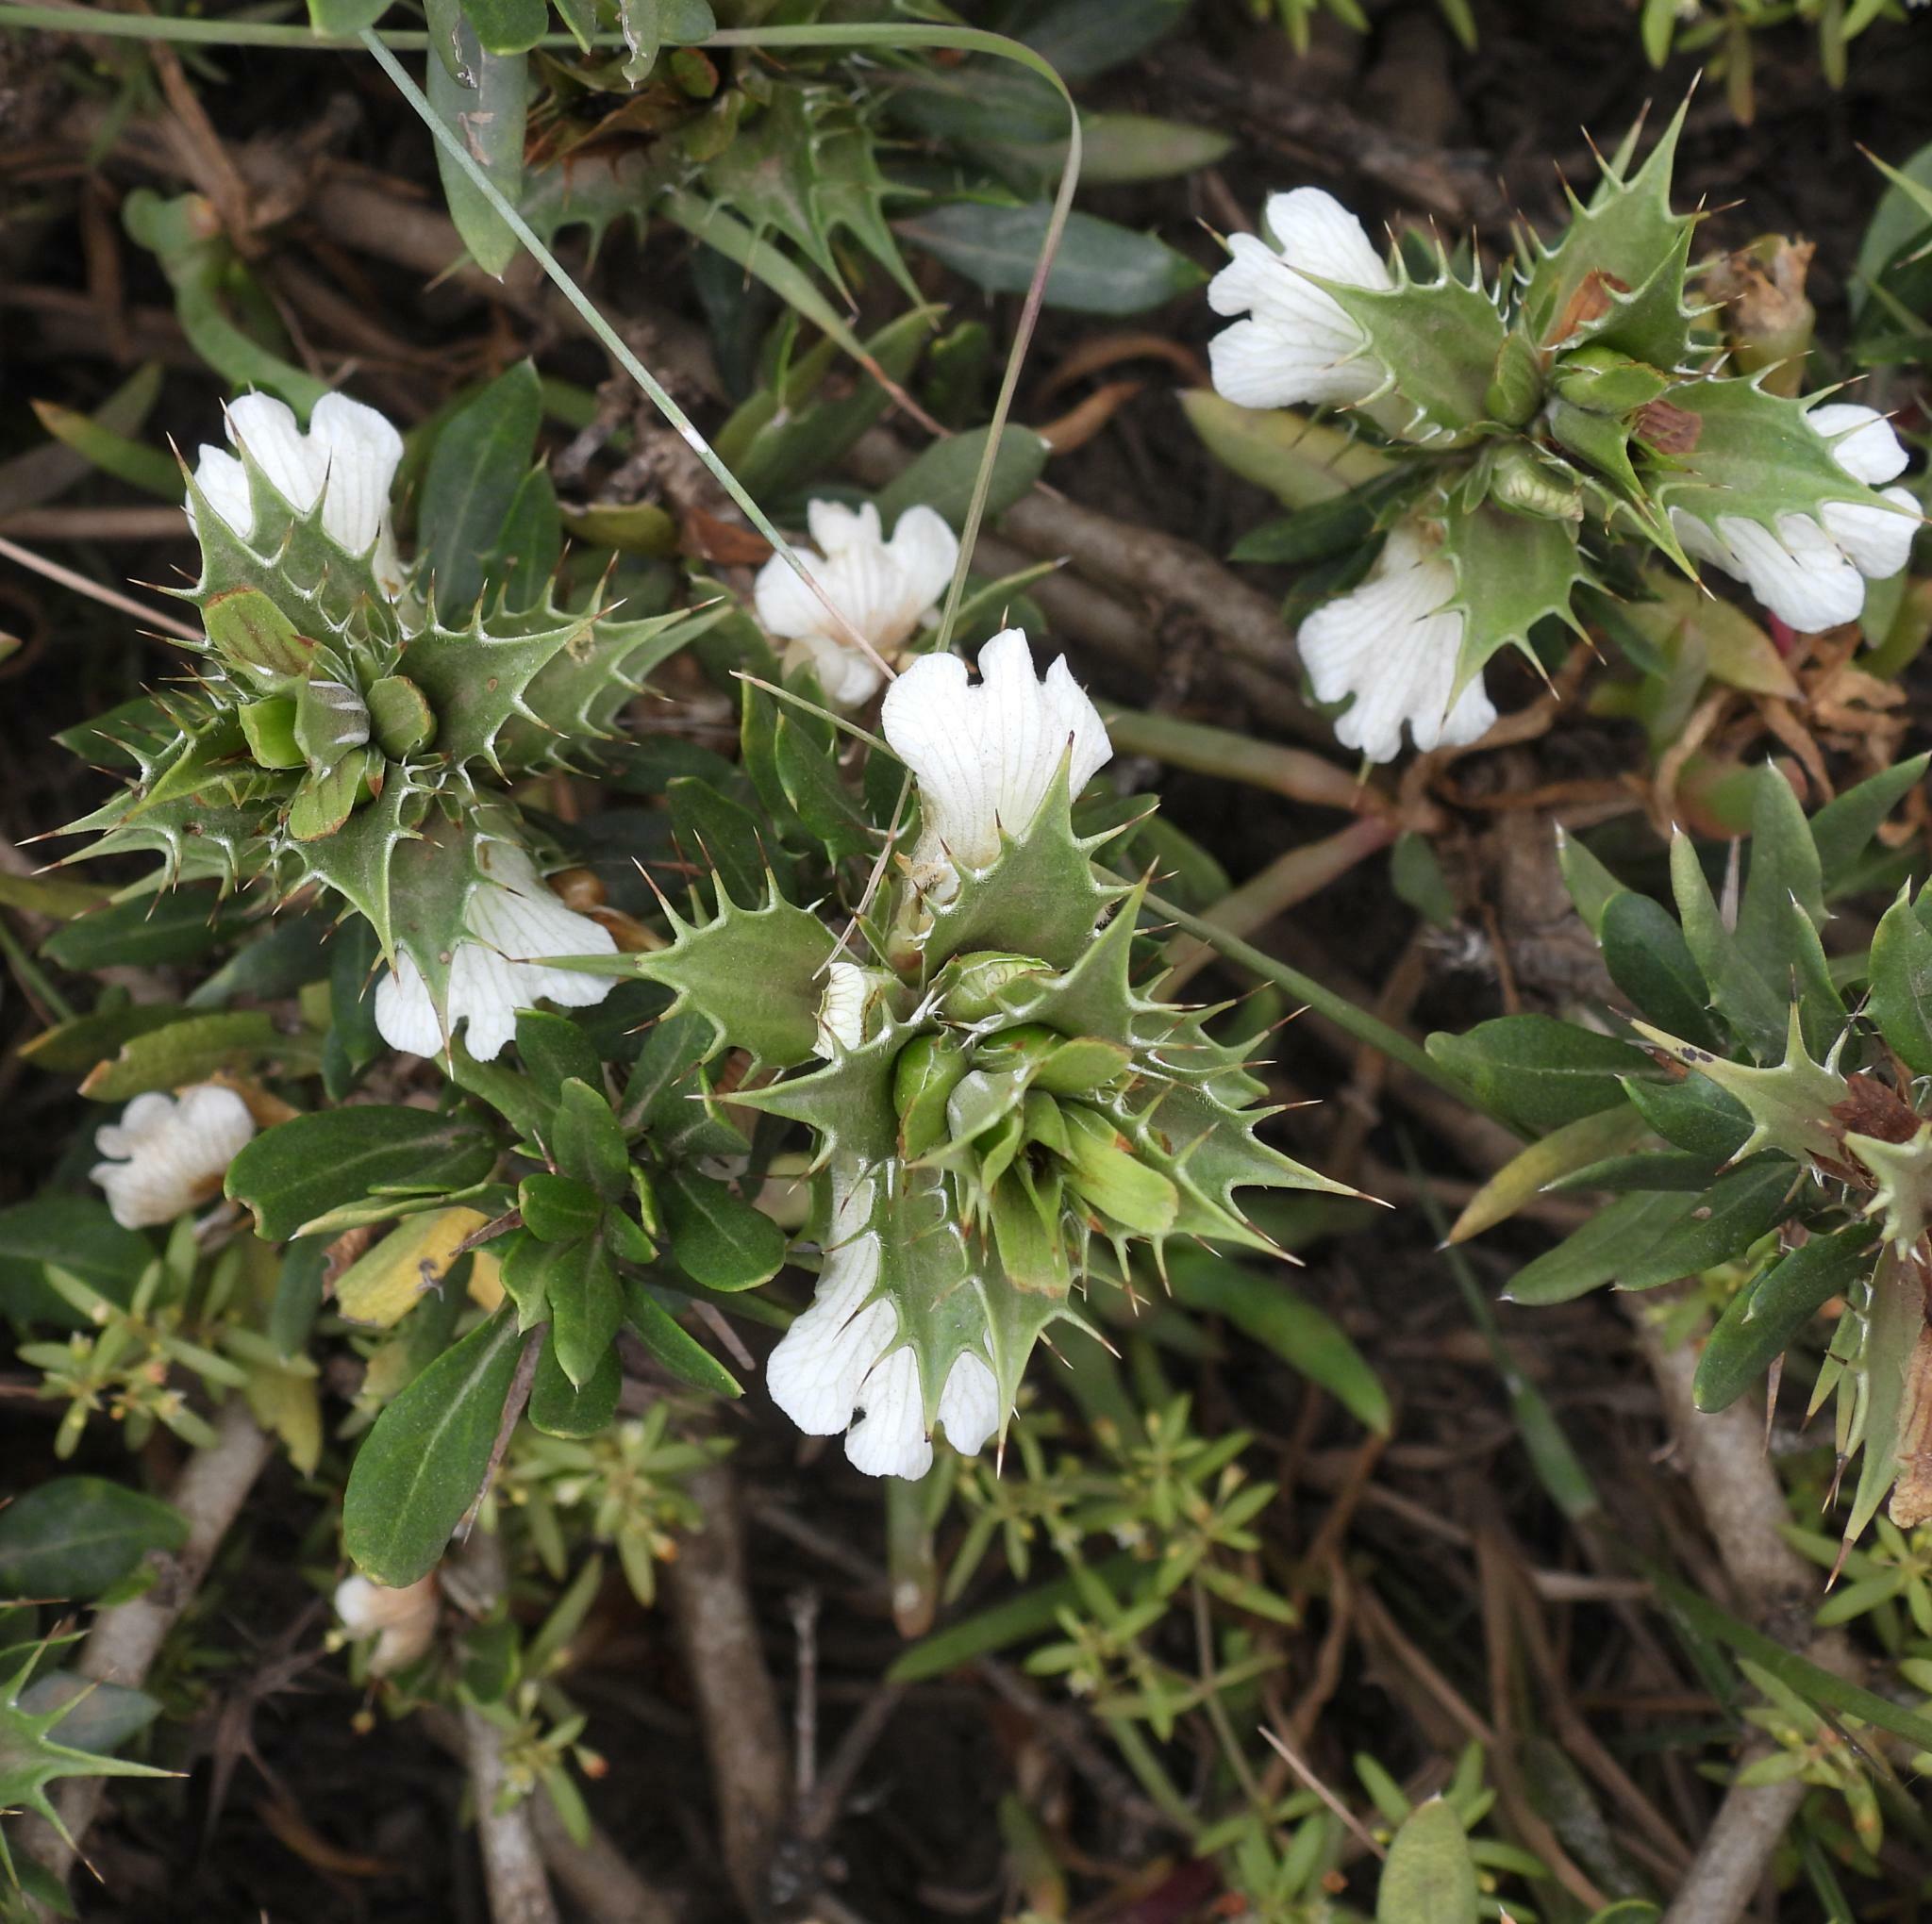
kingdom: Plantae
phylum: Tracheophyta
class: Magnoliopsida
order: Lamiales
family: Acanthaceae
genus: Blepharis
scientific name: Blepharis capensis
